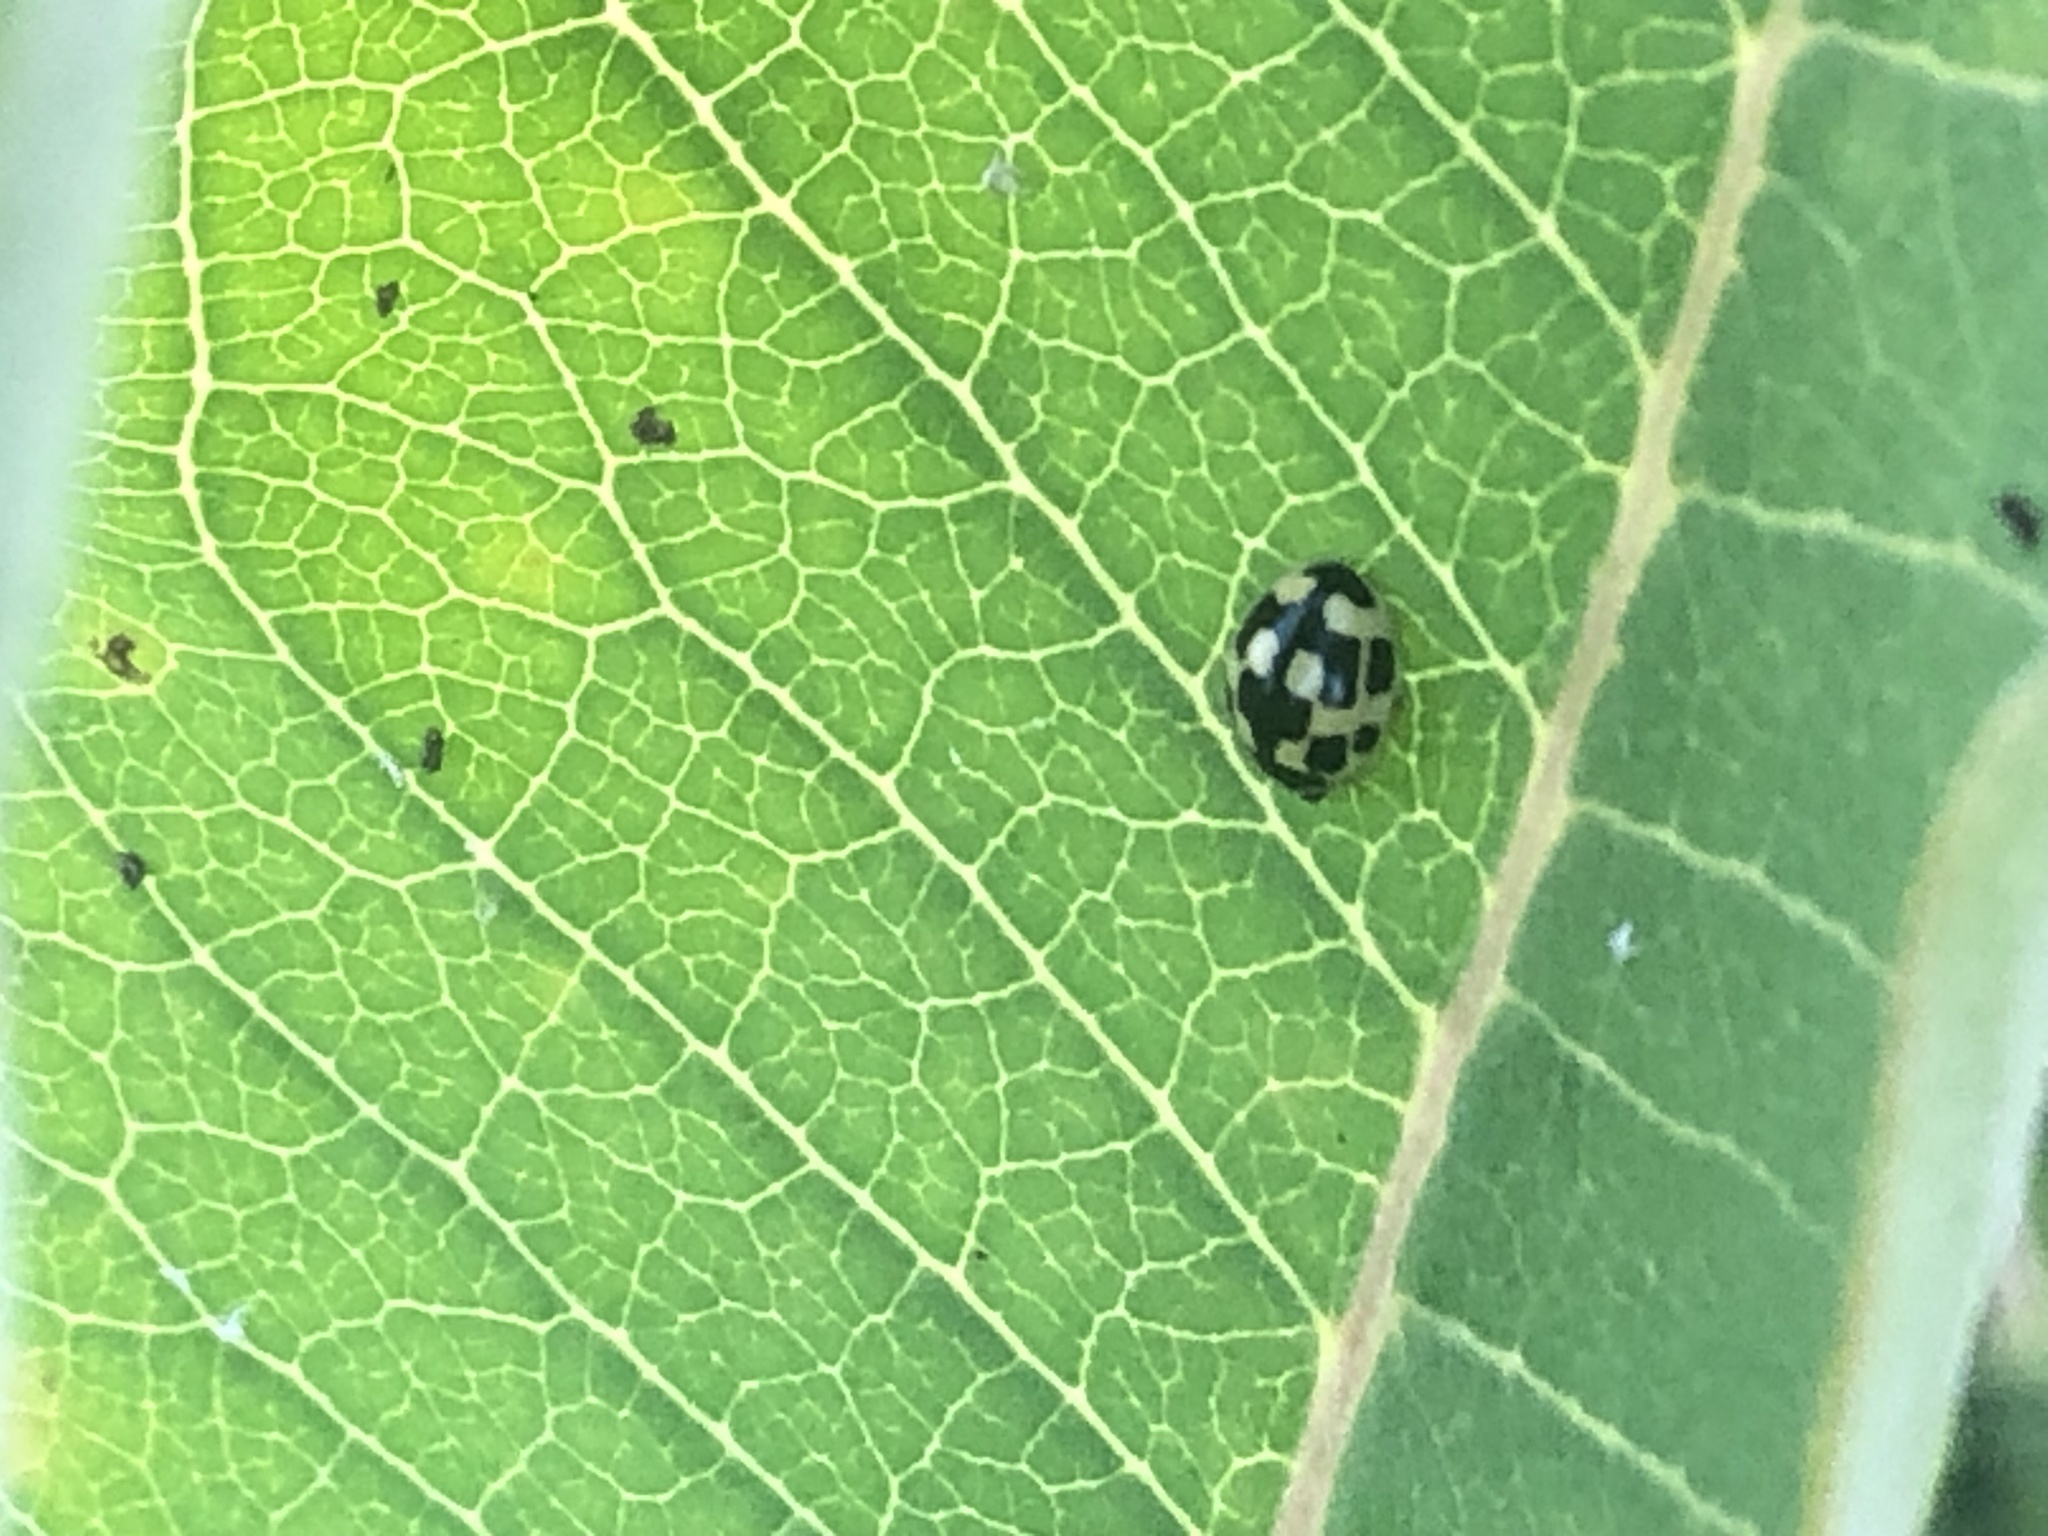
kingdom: Animalia
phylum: Arthropoda
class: Insecta
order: Coleoptera
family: Coccinellidae
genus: Propylaea
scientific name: Propylaea quatuordecimpunctata
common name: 14-spotted ladybird beetle
